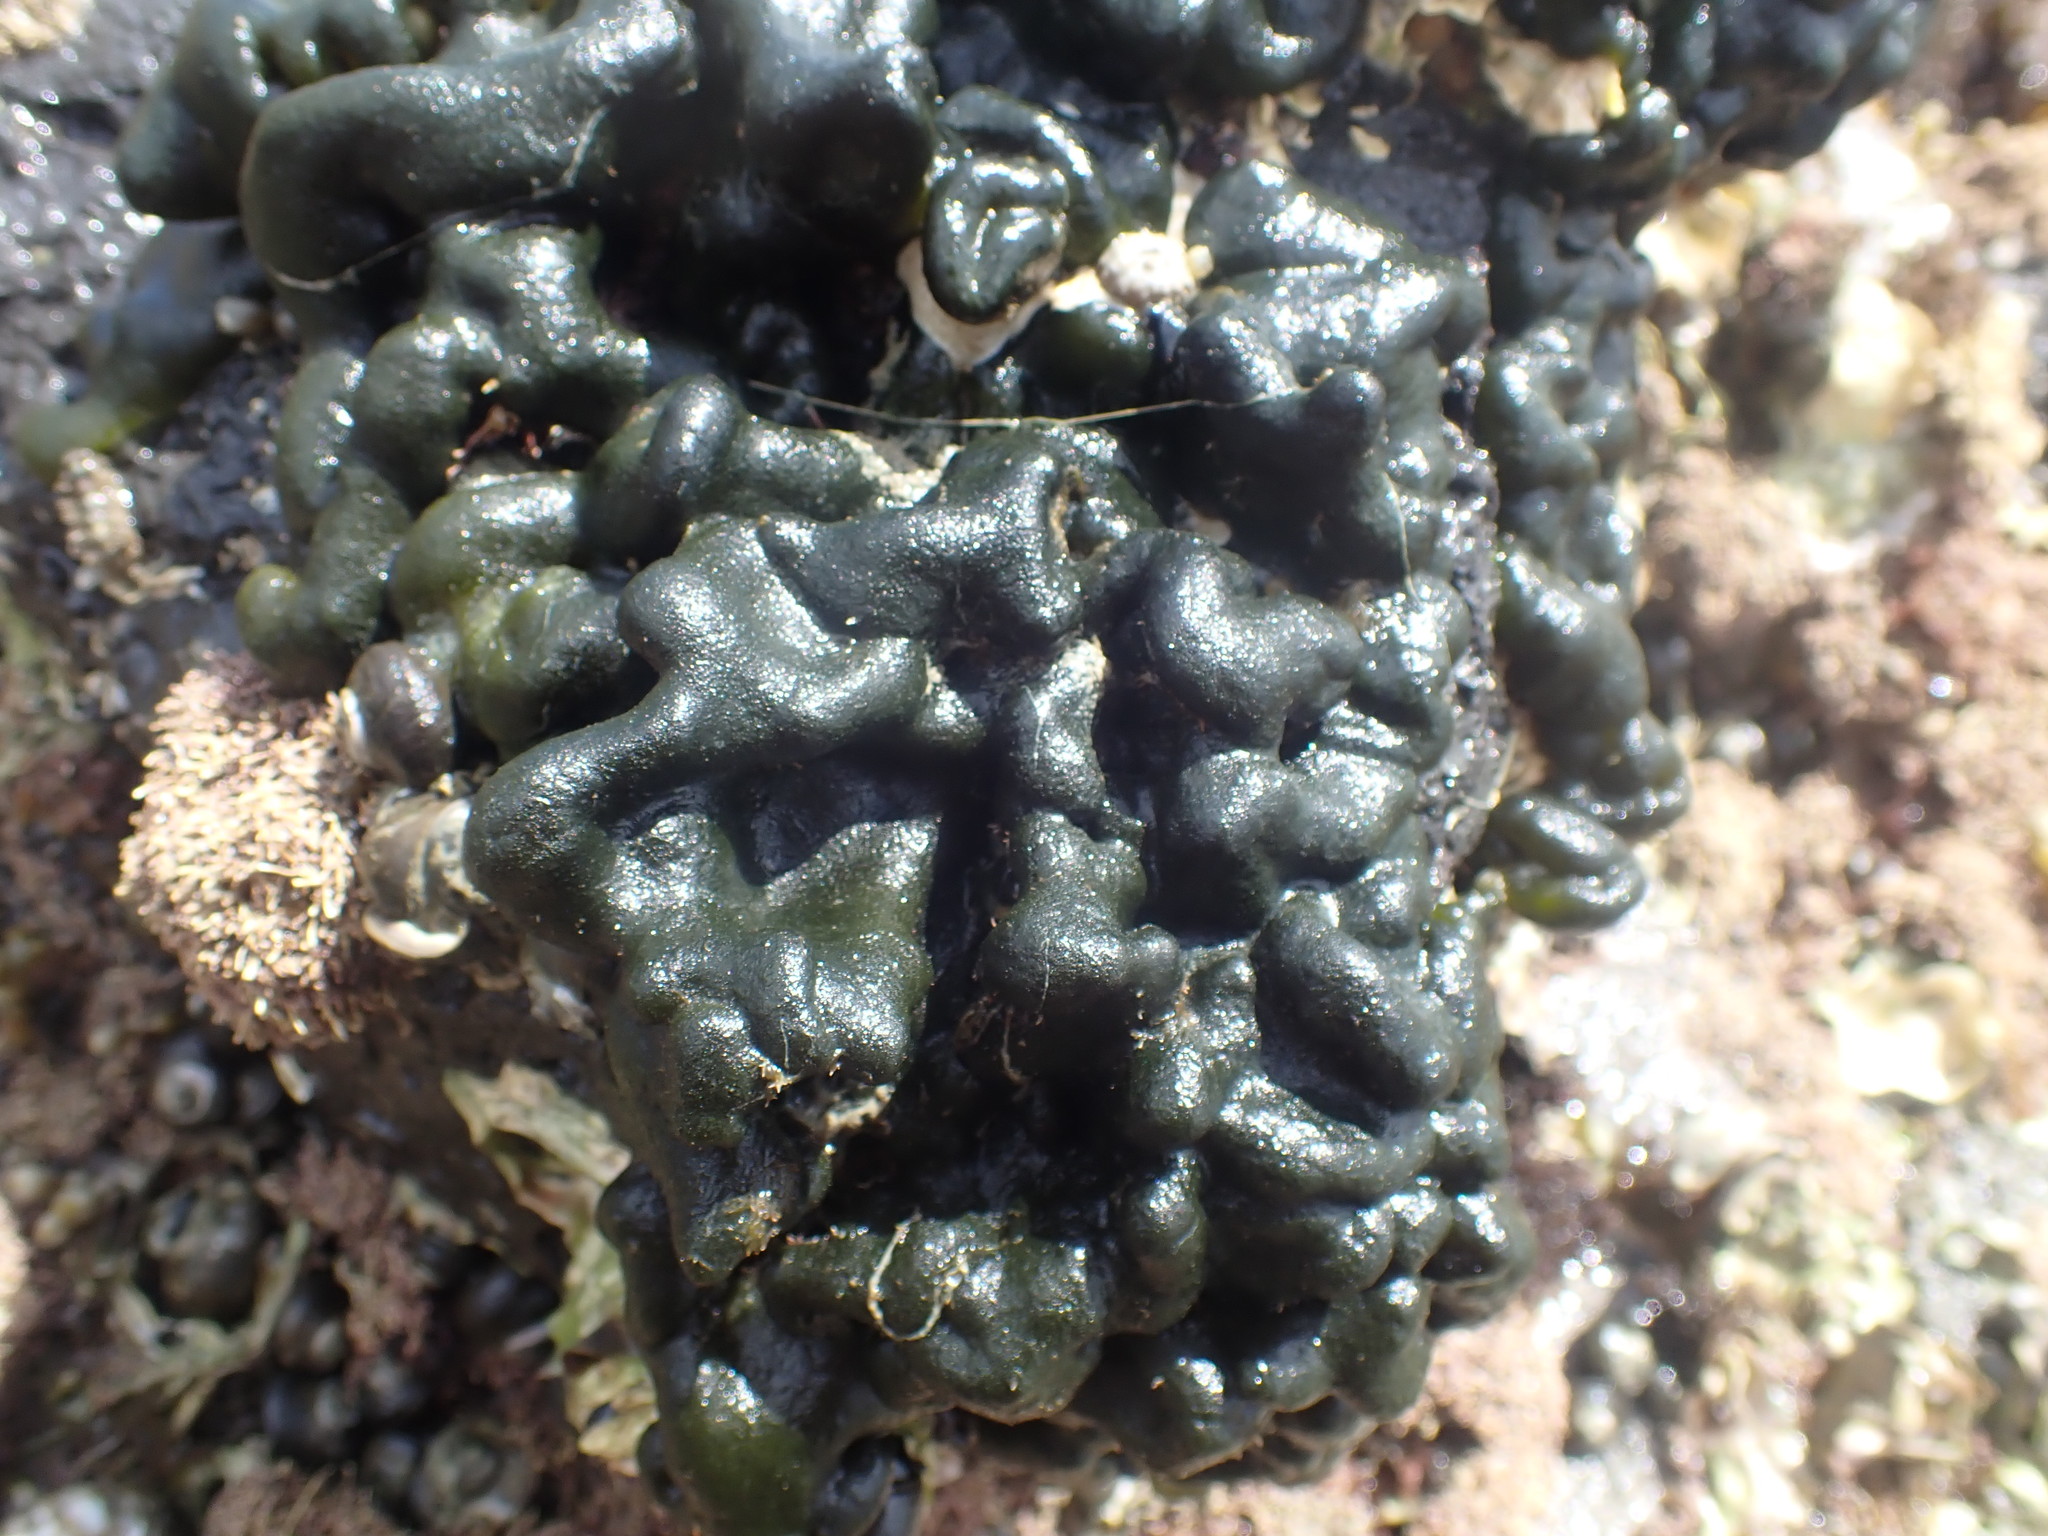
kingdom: Plantae
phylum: Chlorophyta
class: Ulvophyceae
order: Bryopsidales
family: Codiaceae
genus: Codium
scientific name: Codium convolutum
